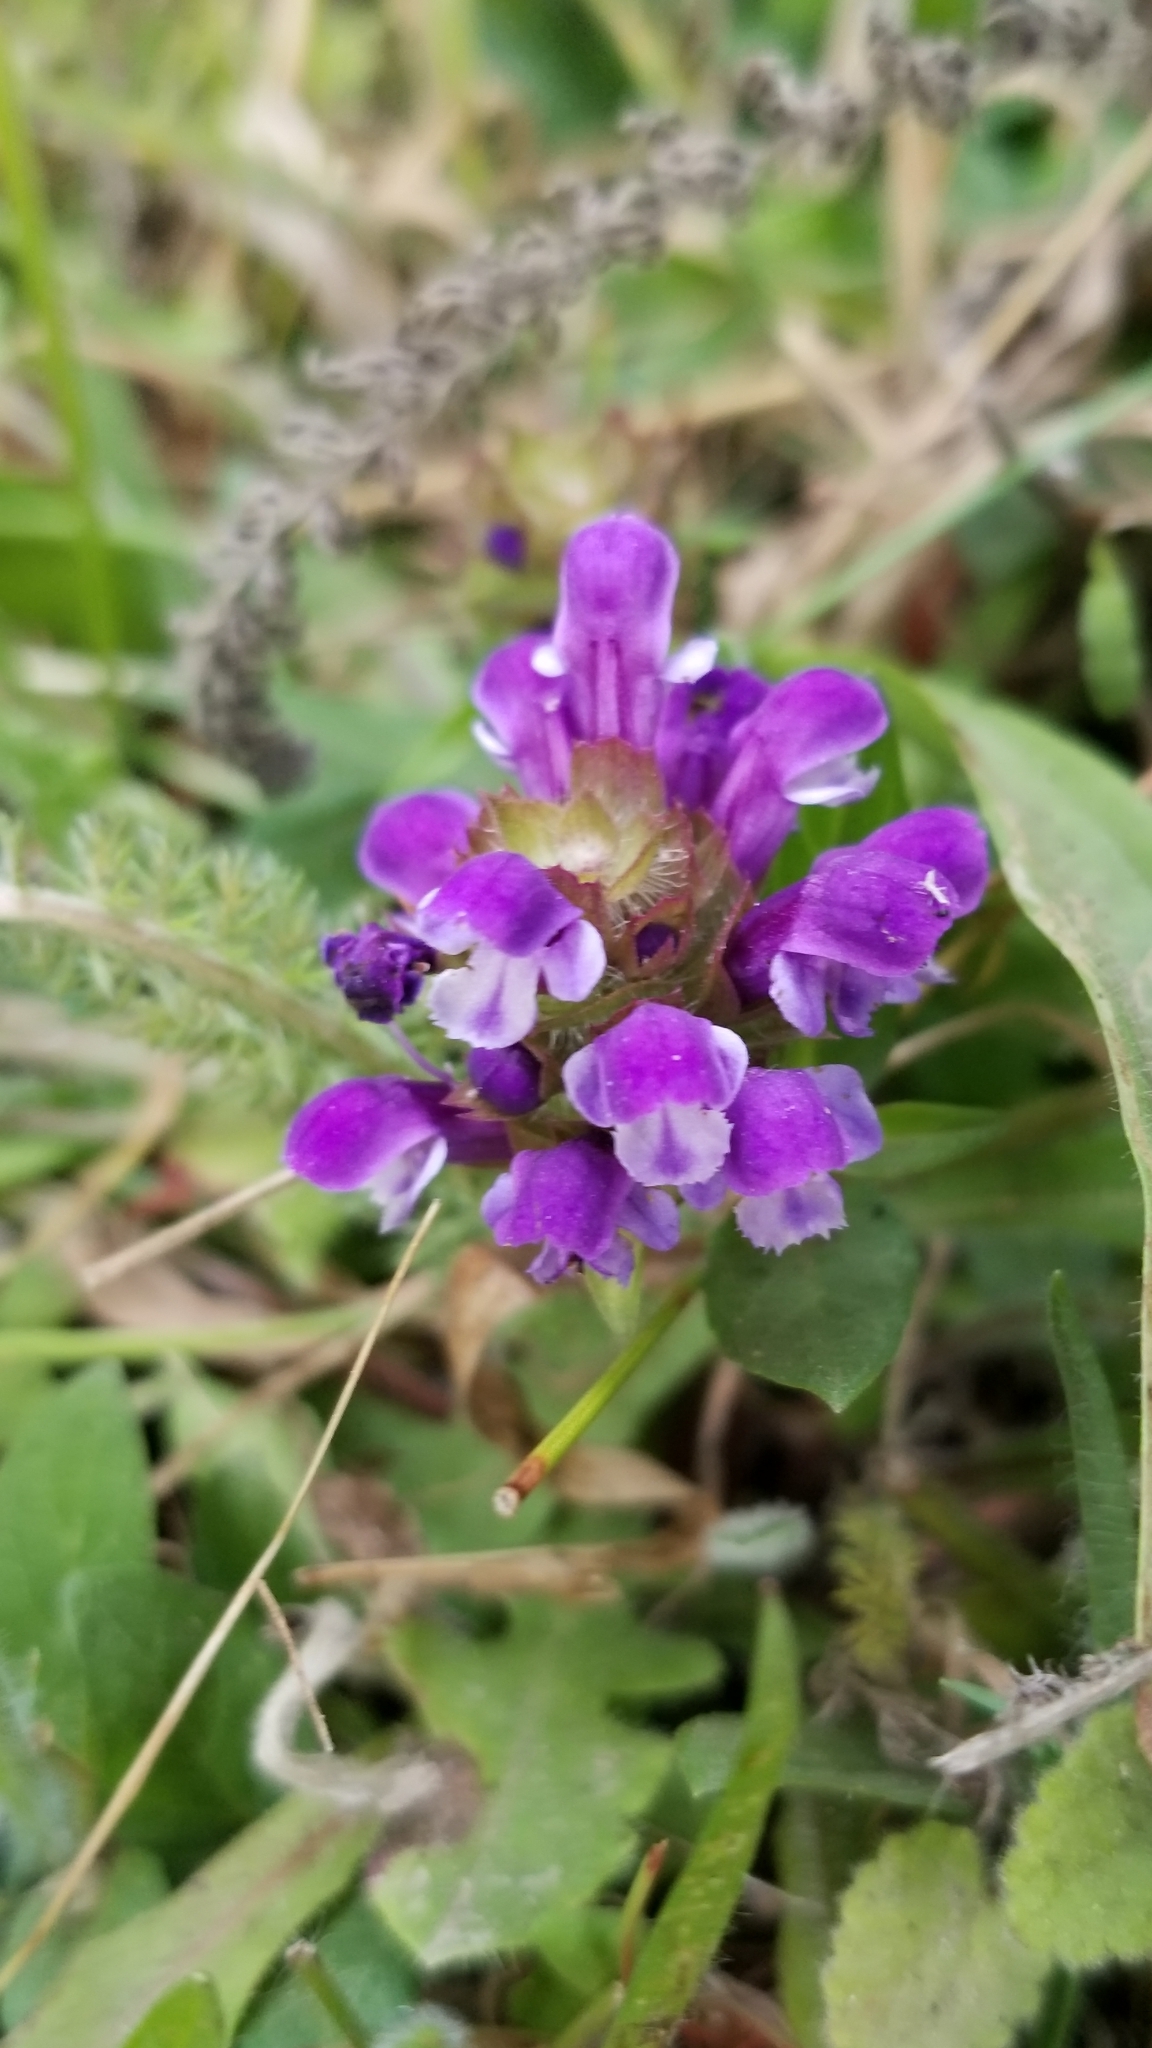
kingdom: Plantae
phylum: Tracheophyta
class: Magnoliopsida
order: Lamiales
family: Lamiaceae
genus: Prunella
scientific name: Prunella vulgaris
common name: Heal-all
